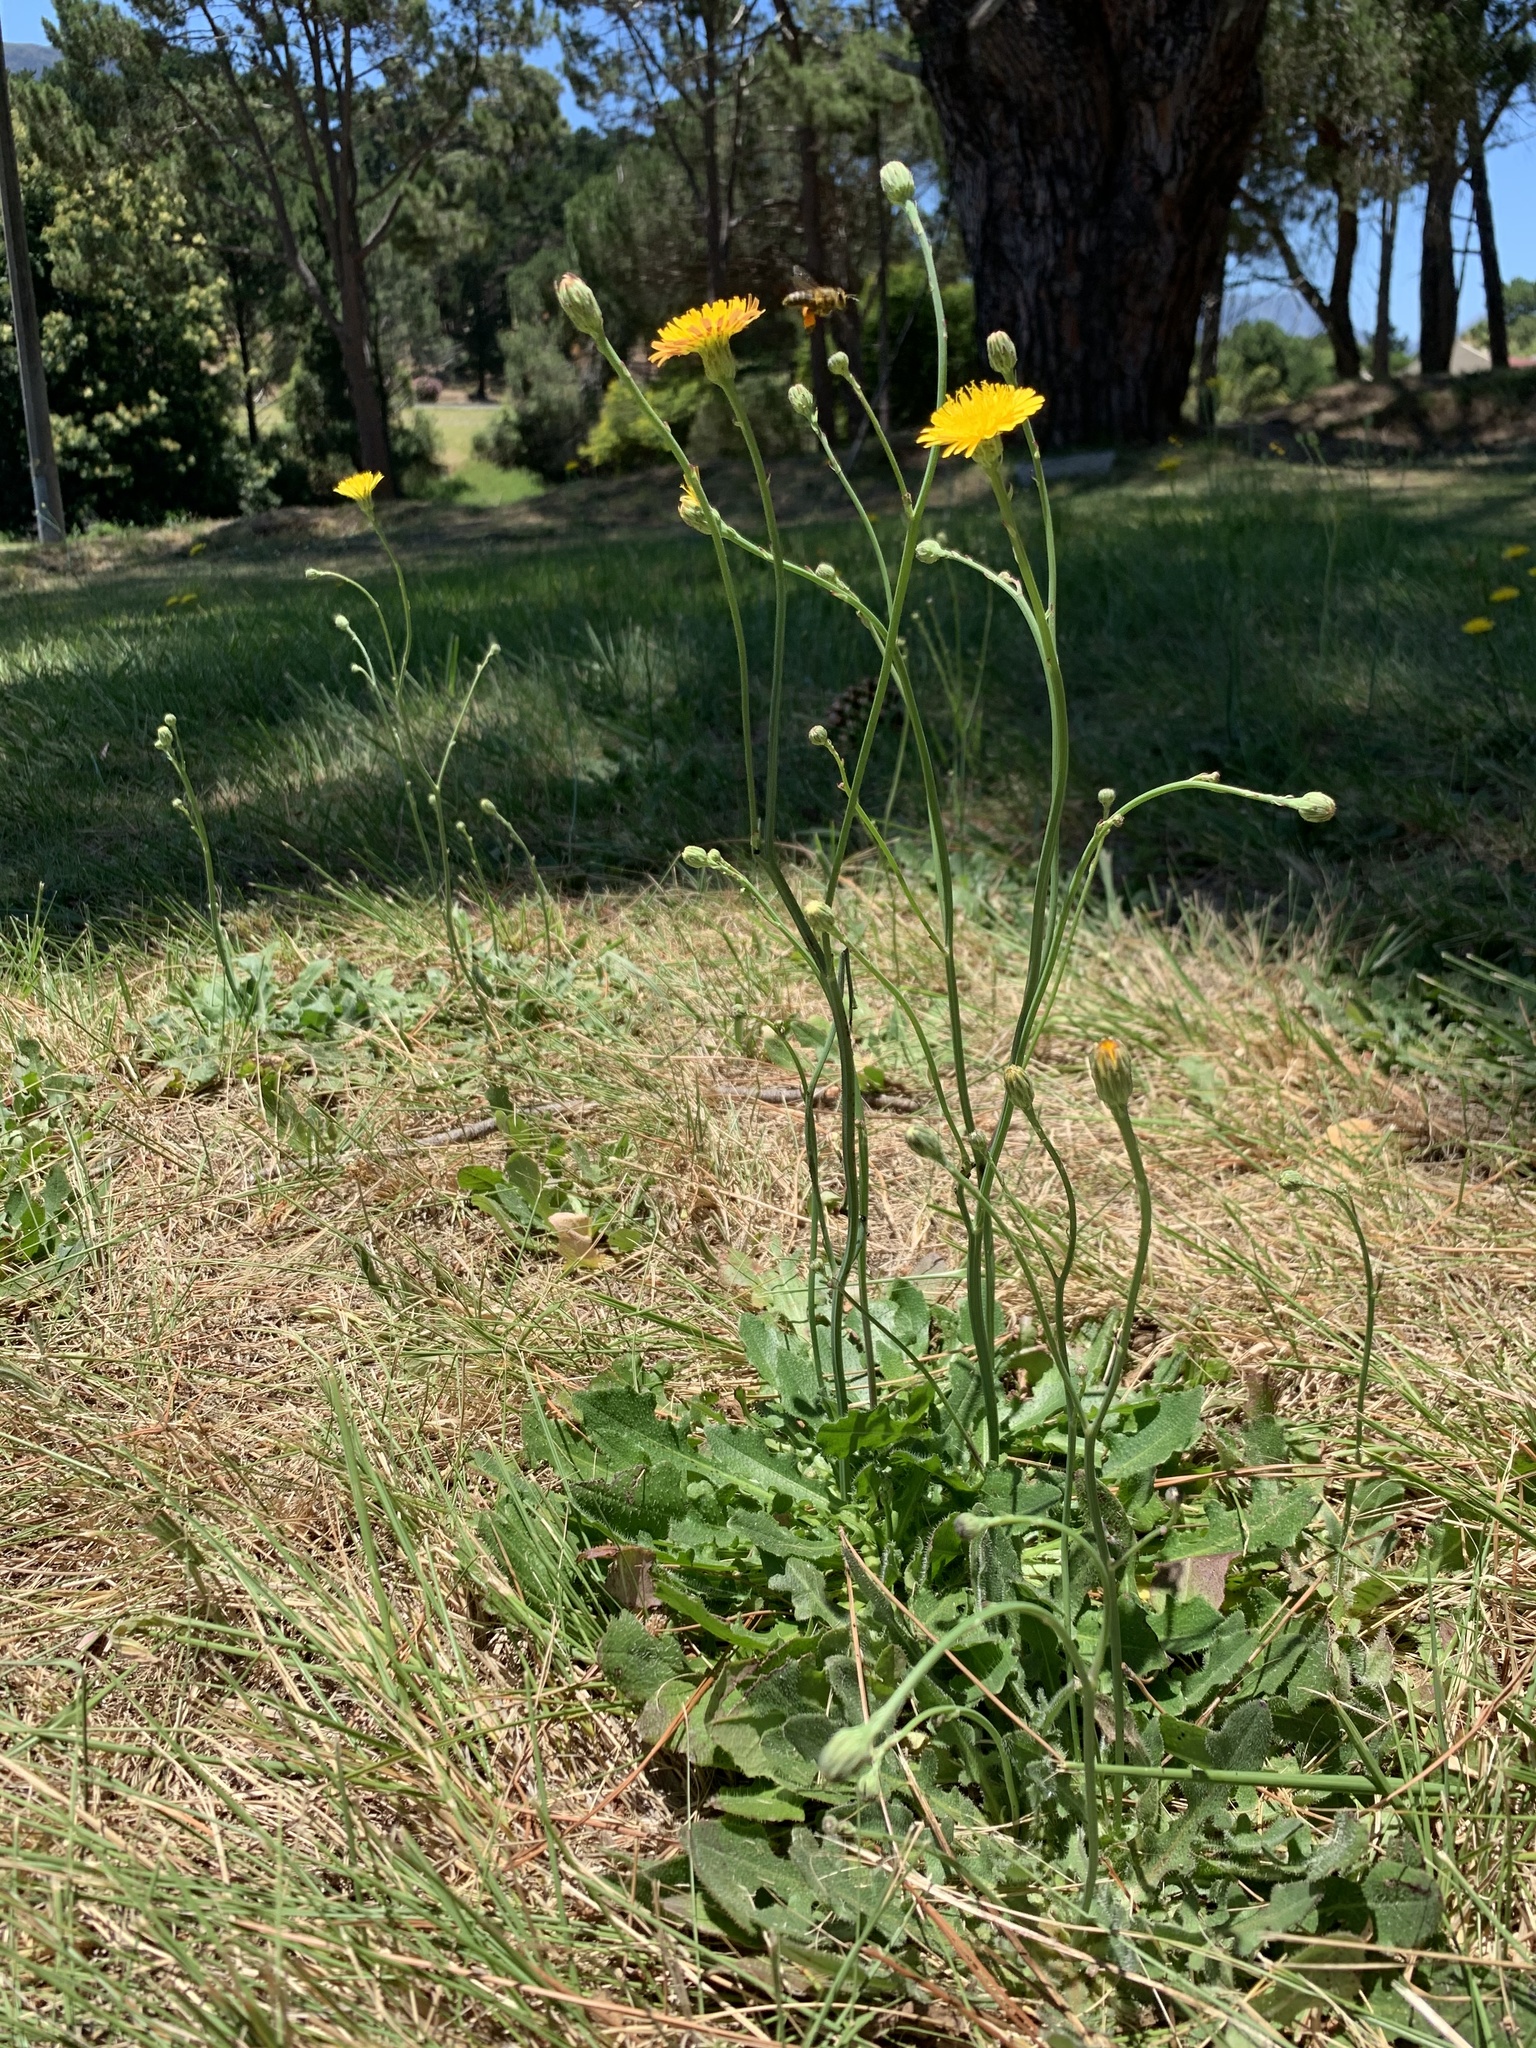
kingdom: Plantae
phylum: Tracheophyta
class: Magnoliopsida
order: Asterales
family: Asteraceae
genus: Hypochaeris
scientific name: Hypochaeris radicata
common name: Flatweed
